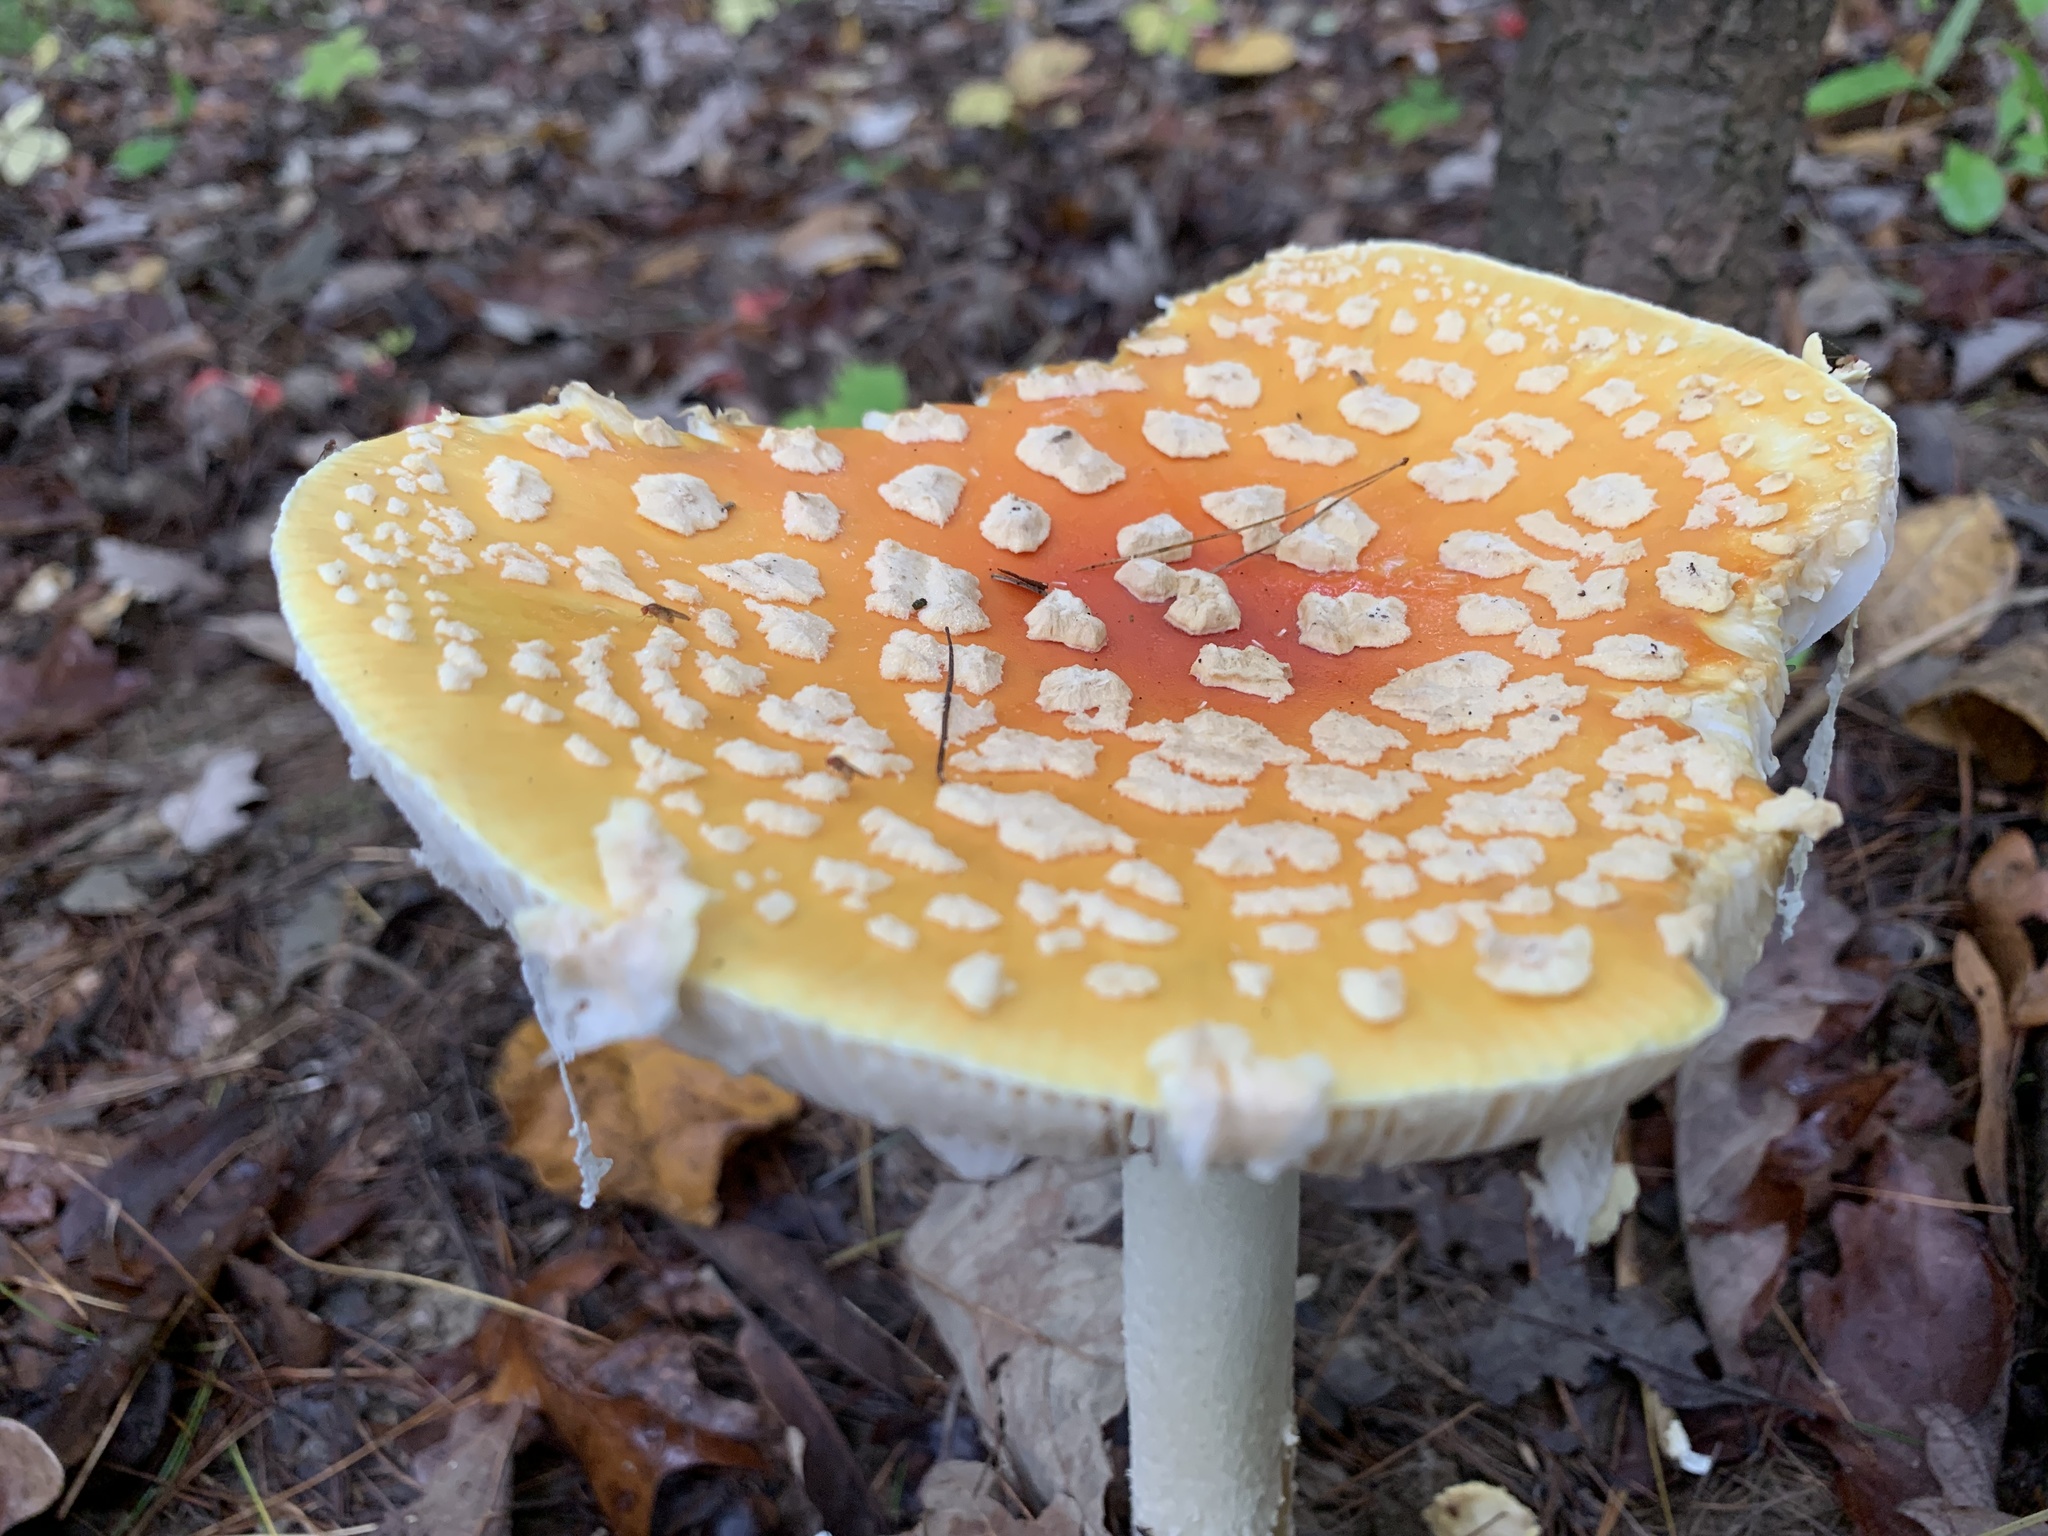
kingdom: Fungi
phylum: Basidiomycota
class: Agaricomycetes
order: Agaricales
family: Amanitaceae
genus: Amanita
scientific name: Amanita muscaria
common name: Fly agaric
